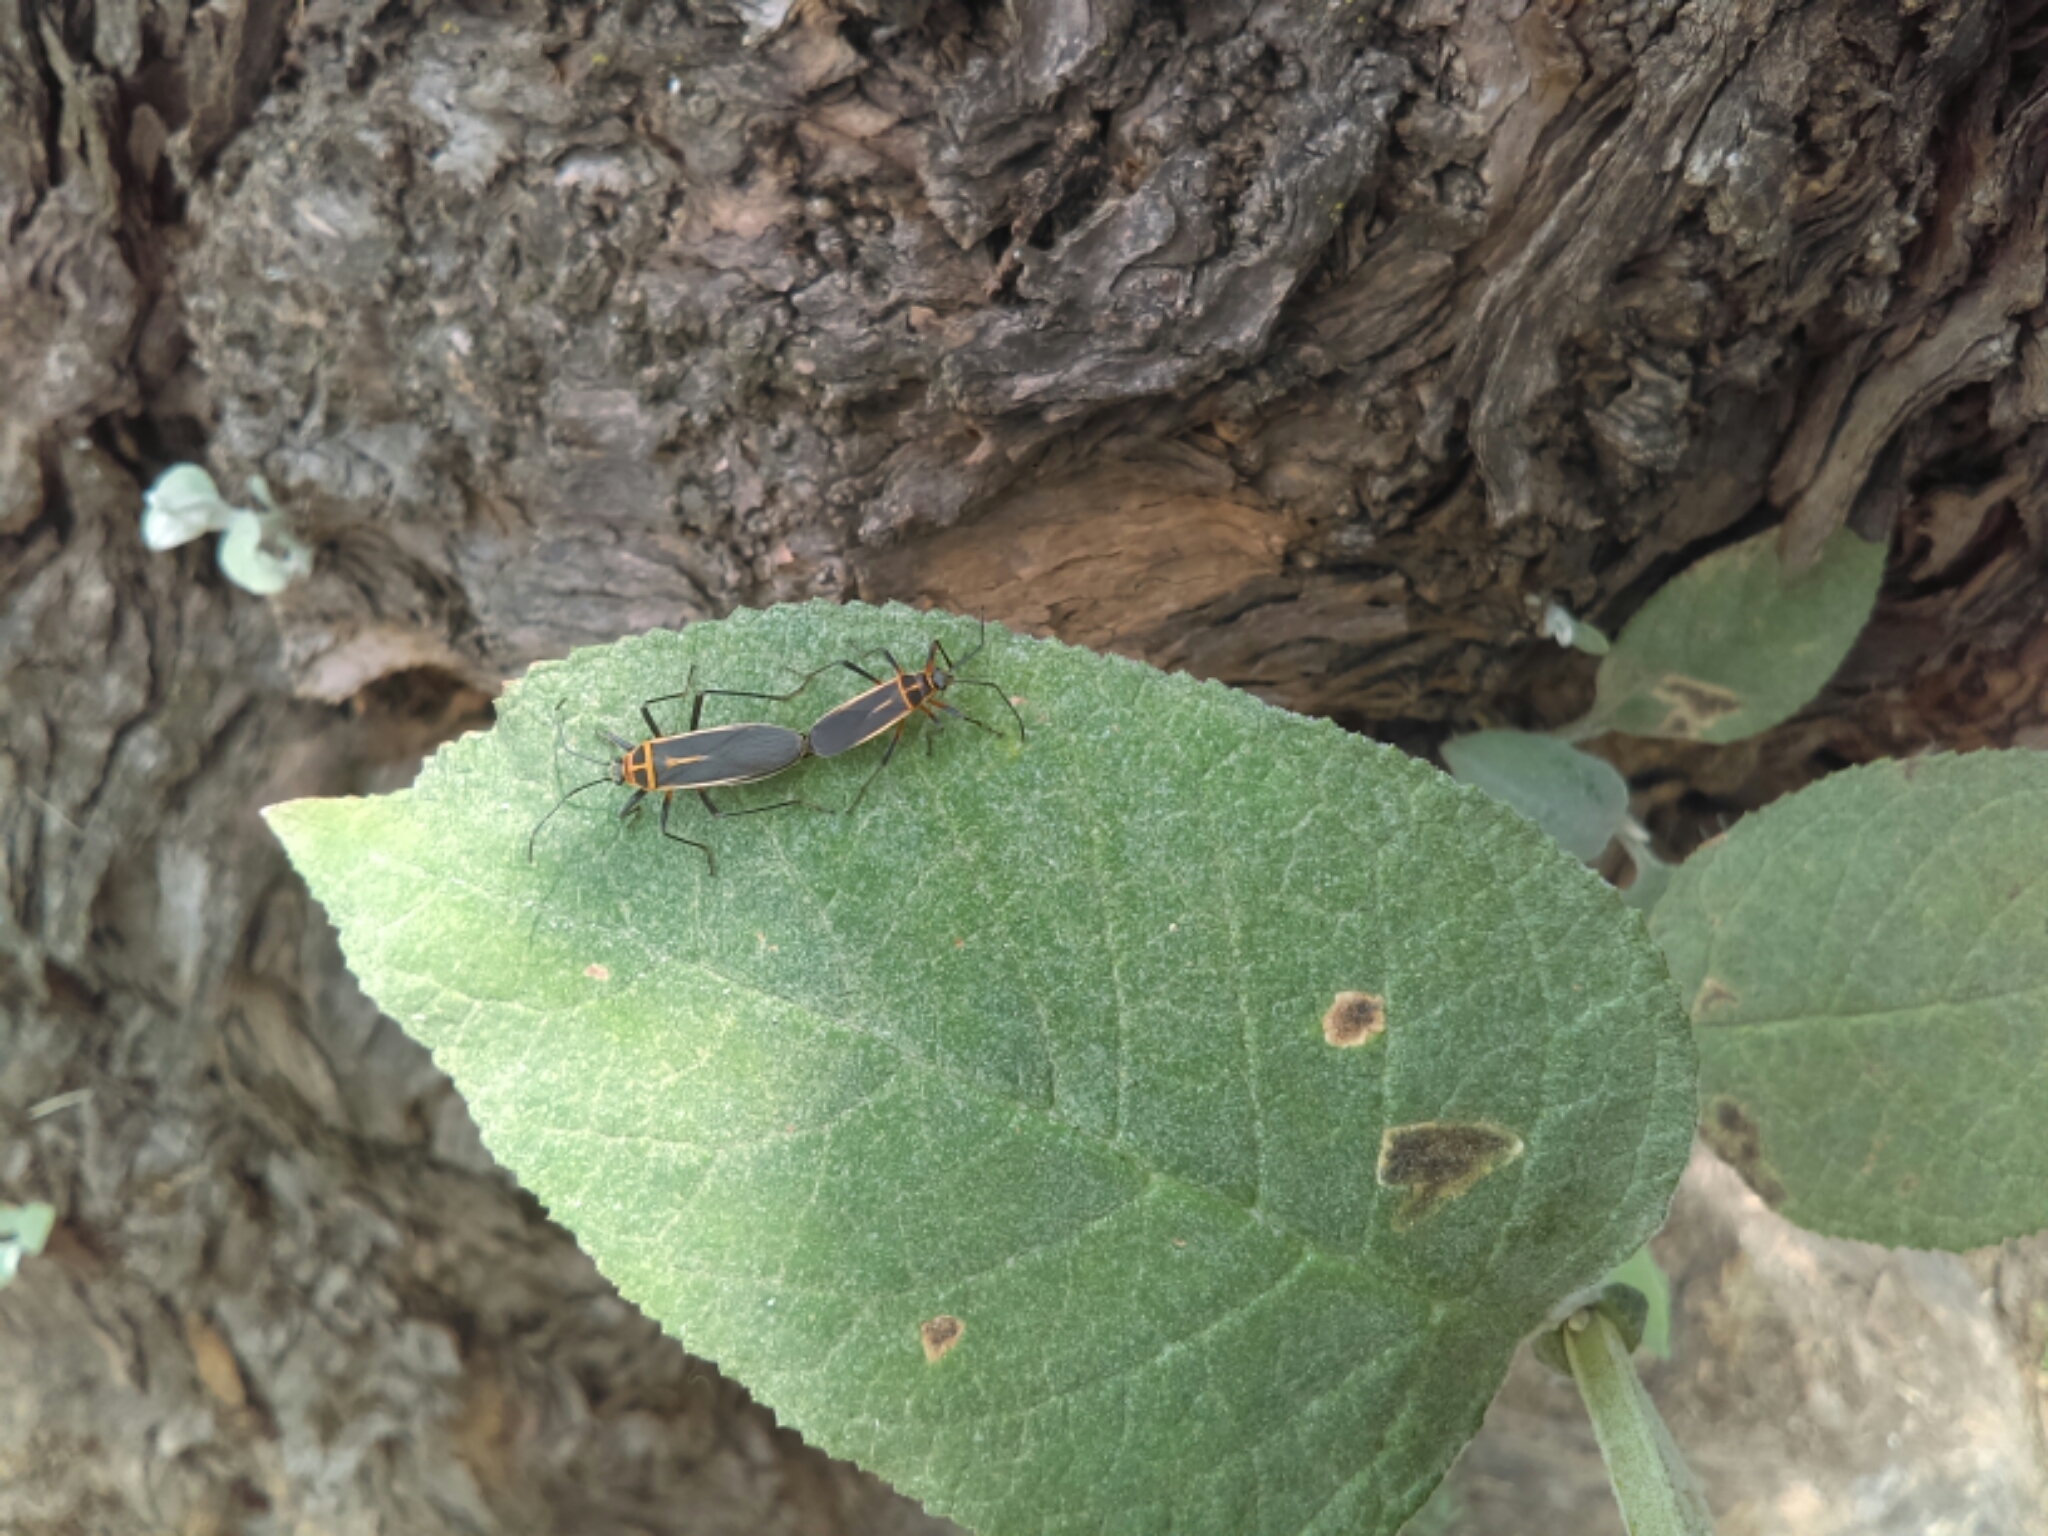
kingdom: Animalia
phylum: Arthropoda
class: Insecta
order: Hemiptera
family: Largidae
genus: Stenomacra
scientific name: Stenomacra marginella
